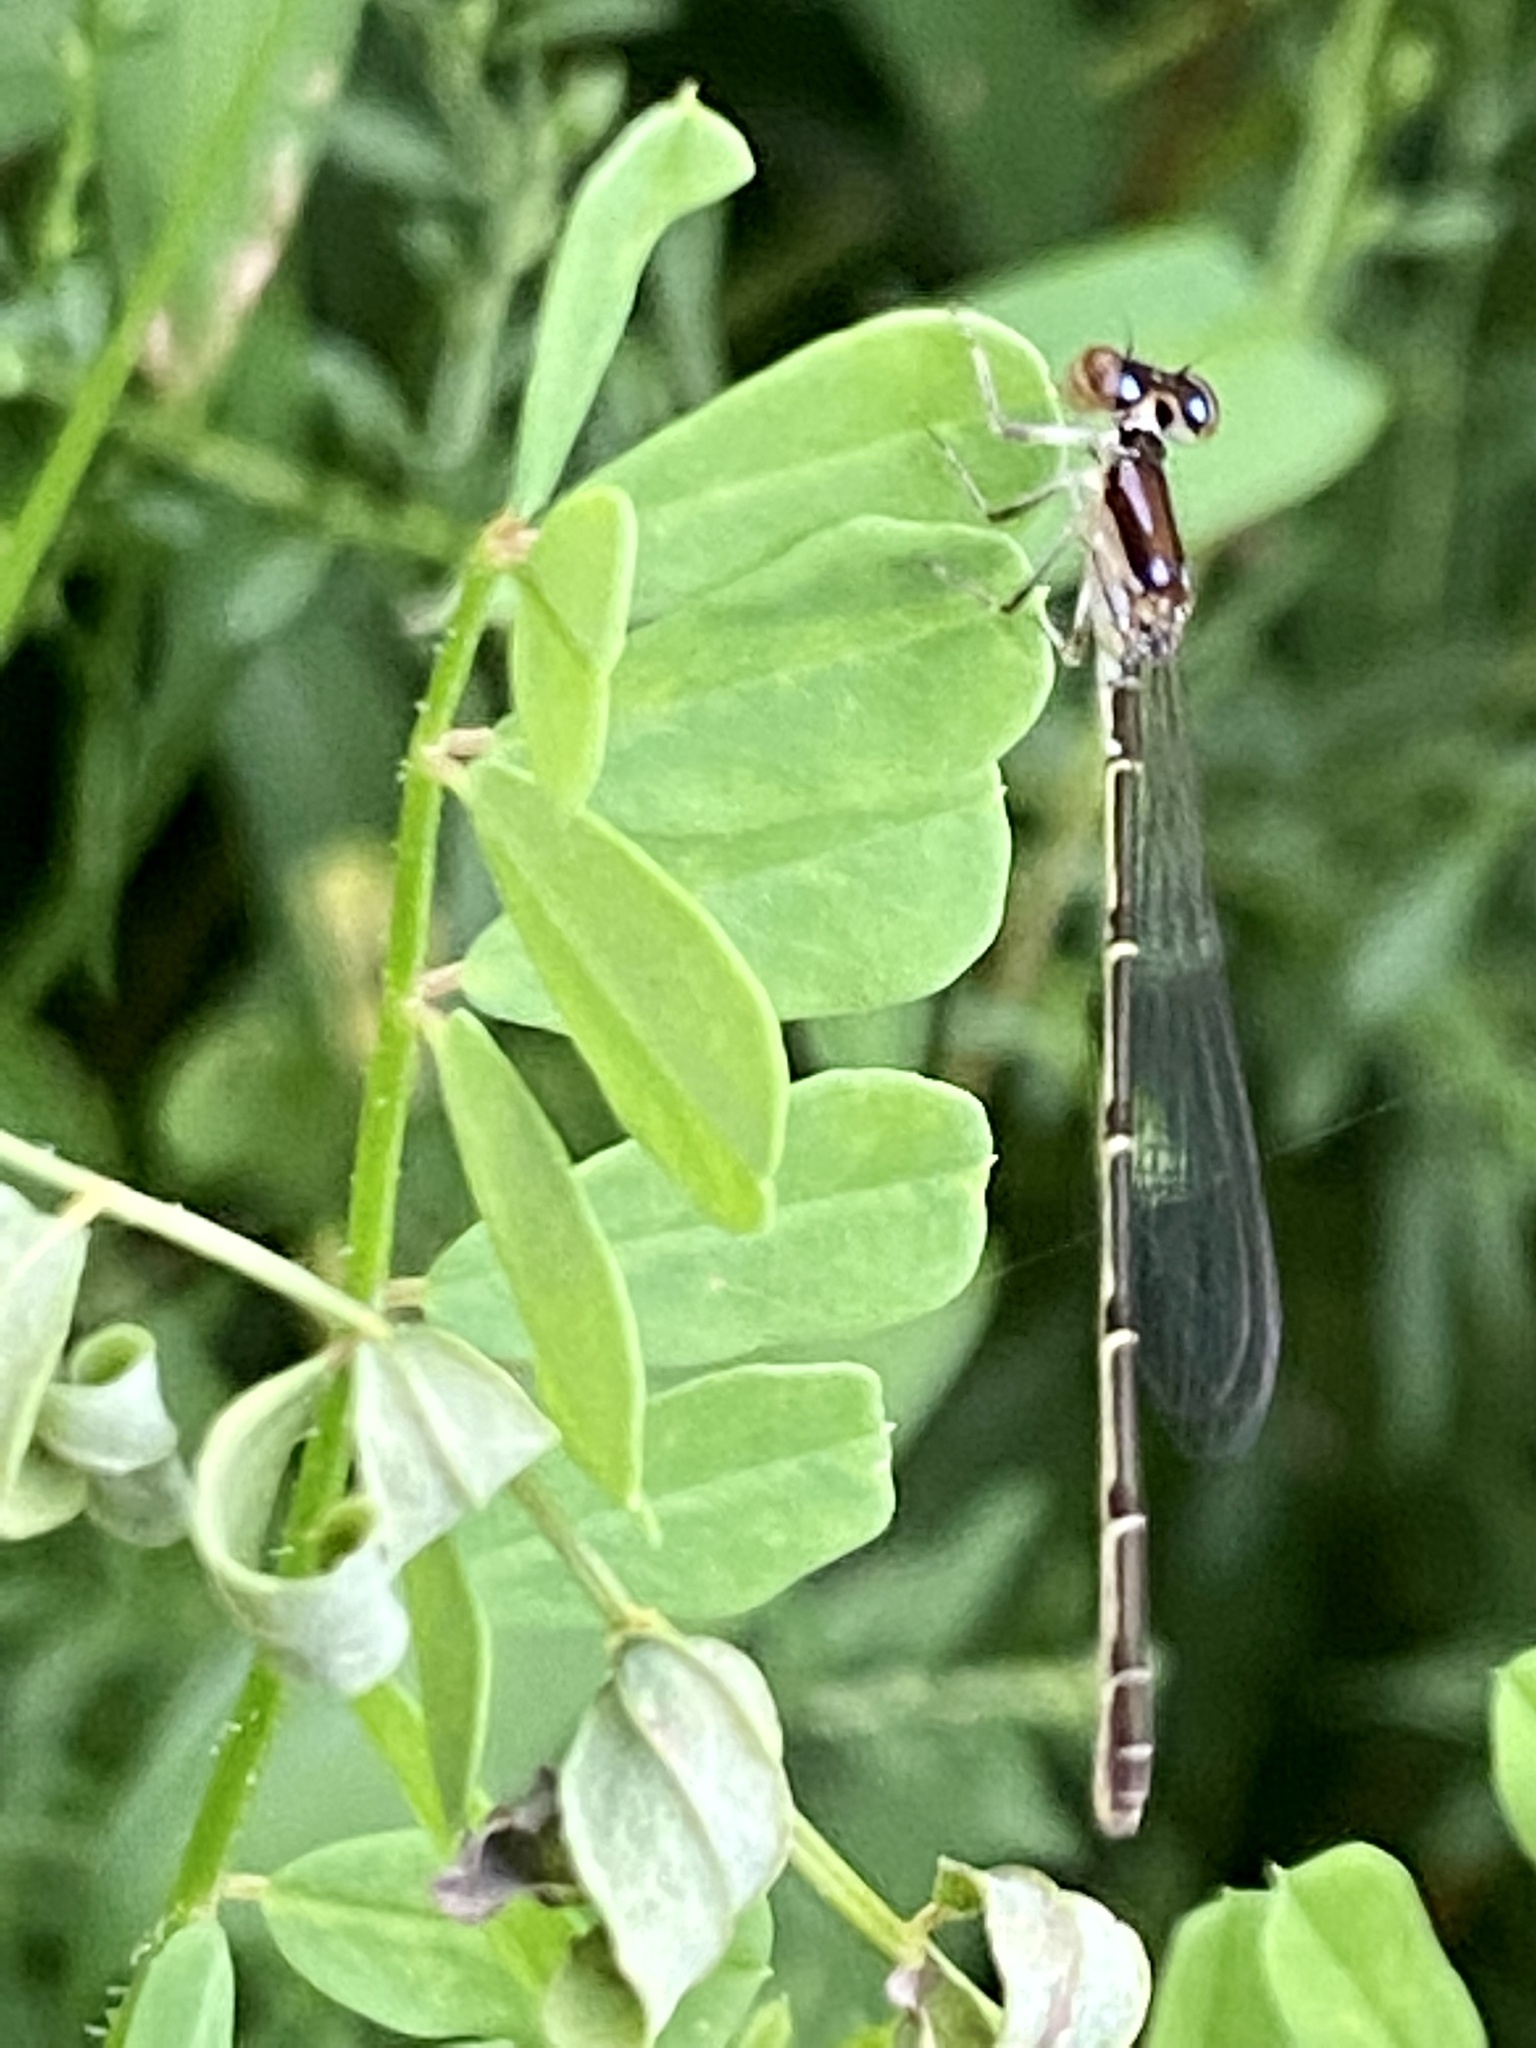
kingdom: Animalia
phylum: Arthropoda
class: Insecta
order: Odonata
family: Coenagrionidae
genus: Ischnura
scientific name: Ischnura posita
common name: Fragile forktail
